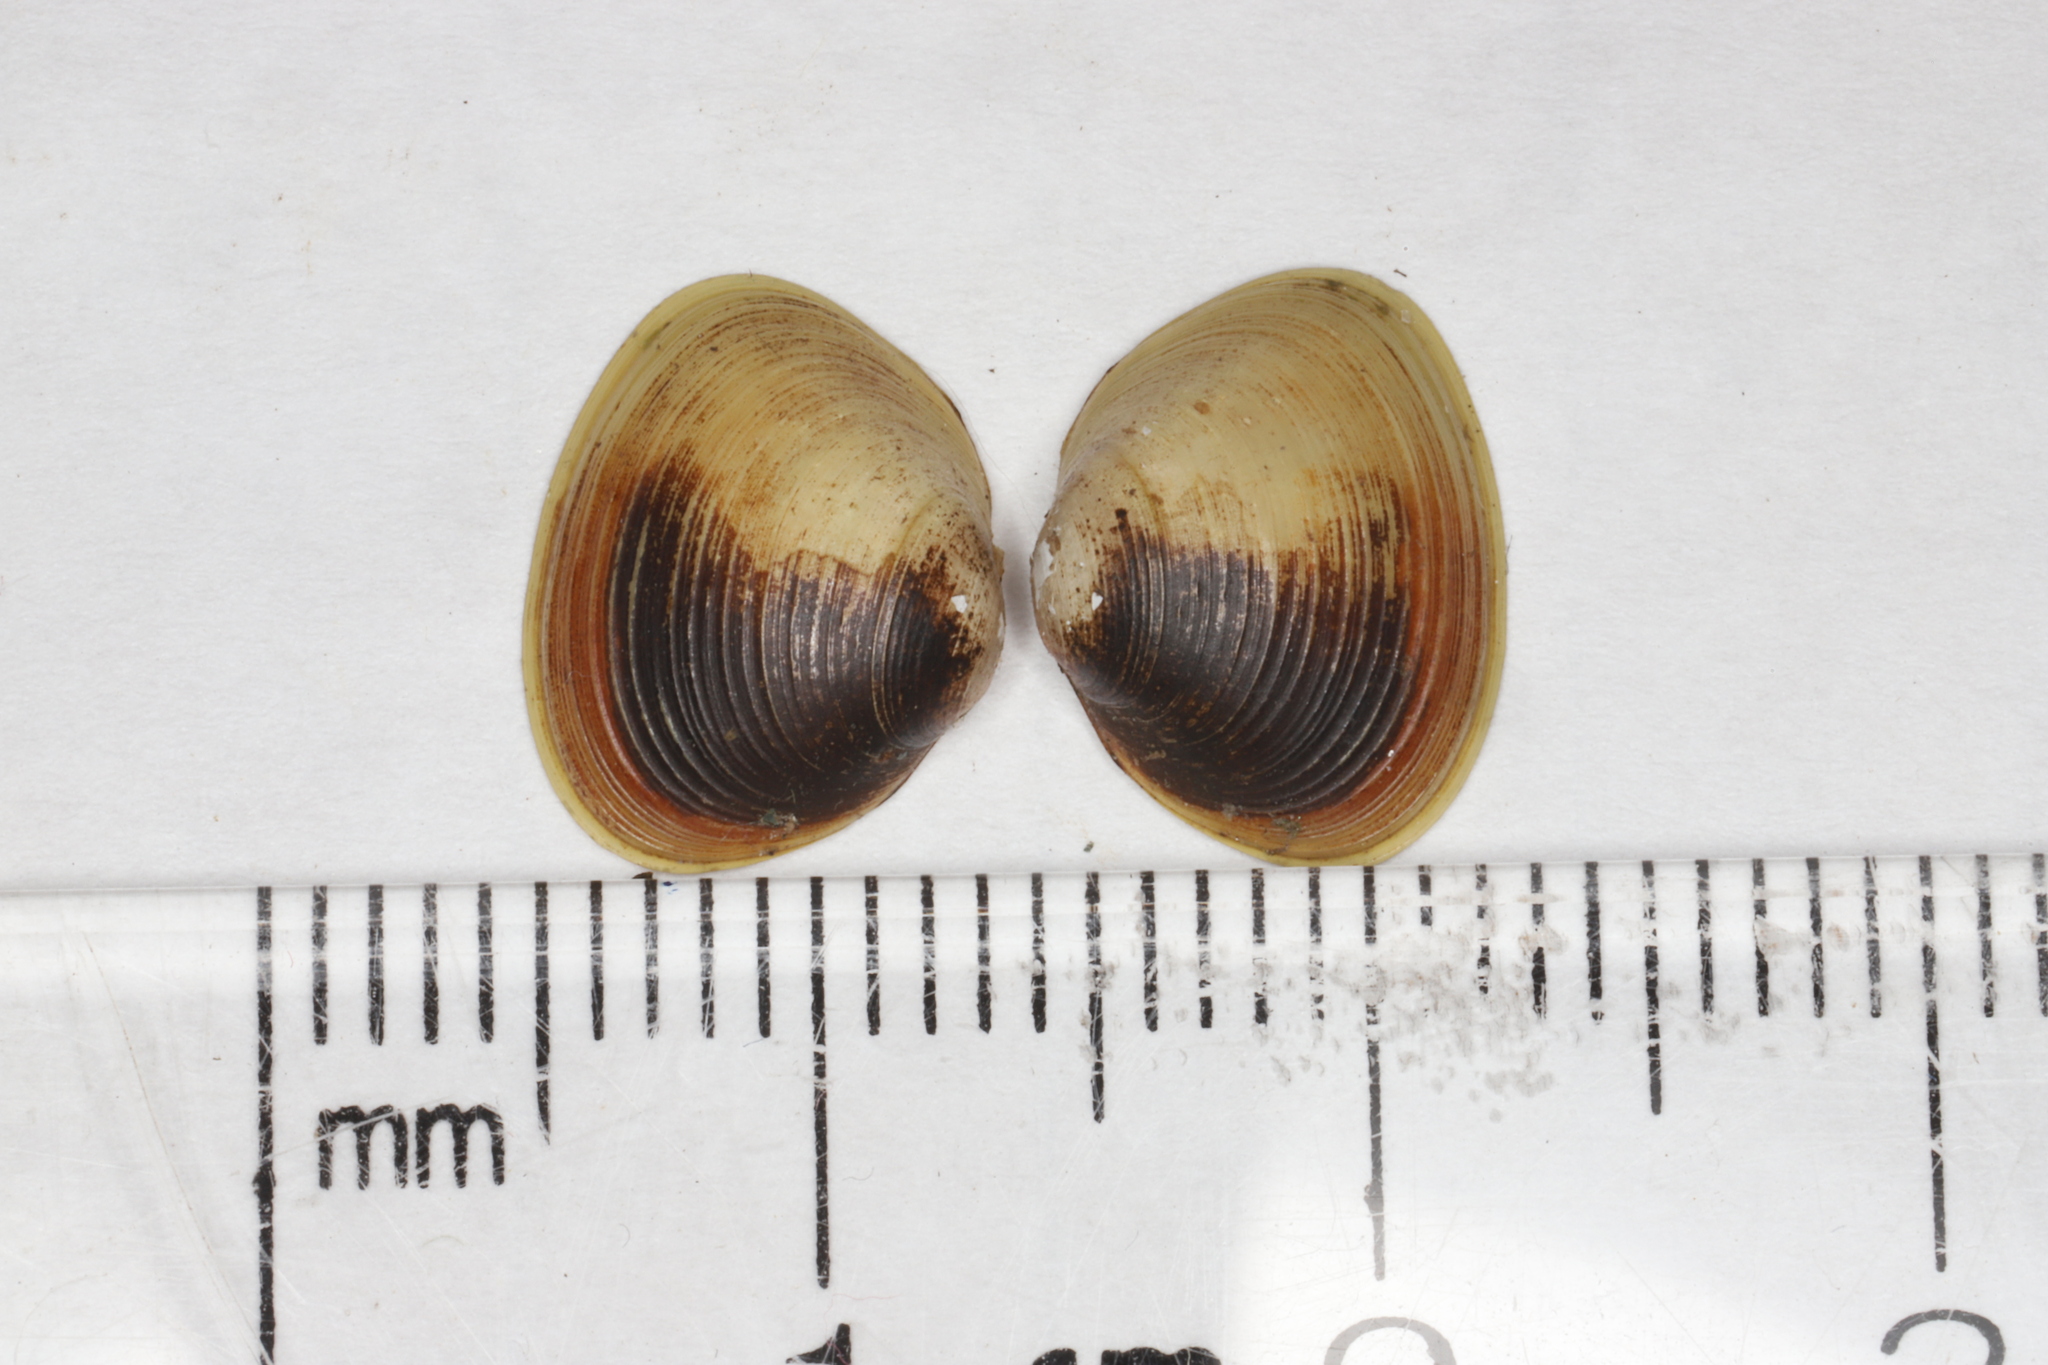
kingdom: Animalia
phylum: Mollusca
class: Bivalvia
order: Sphaeriida
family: Sphaeriidae
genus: Sphaerium
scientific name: Sphaerium striatinum
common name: Striated fingernailclam
